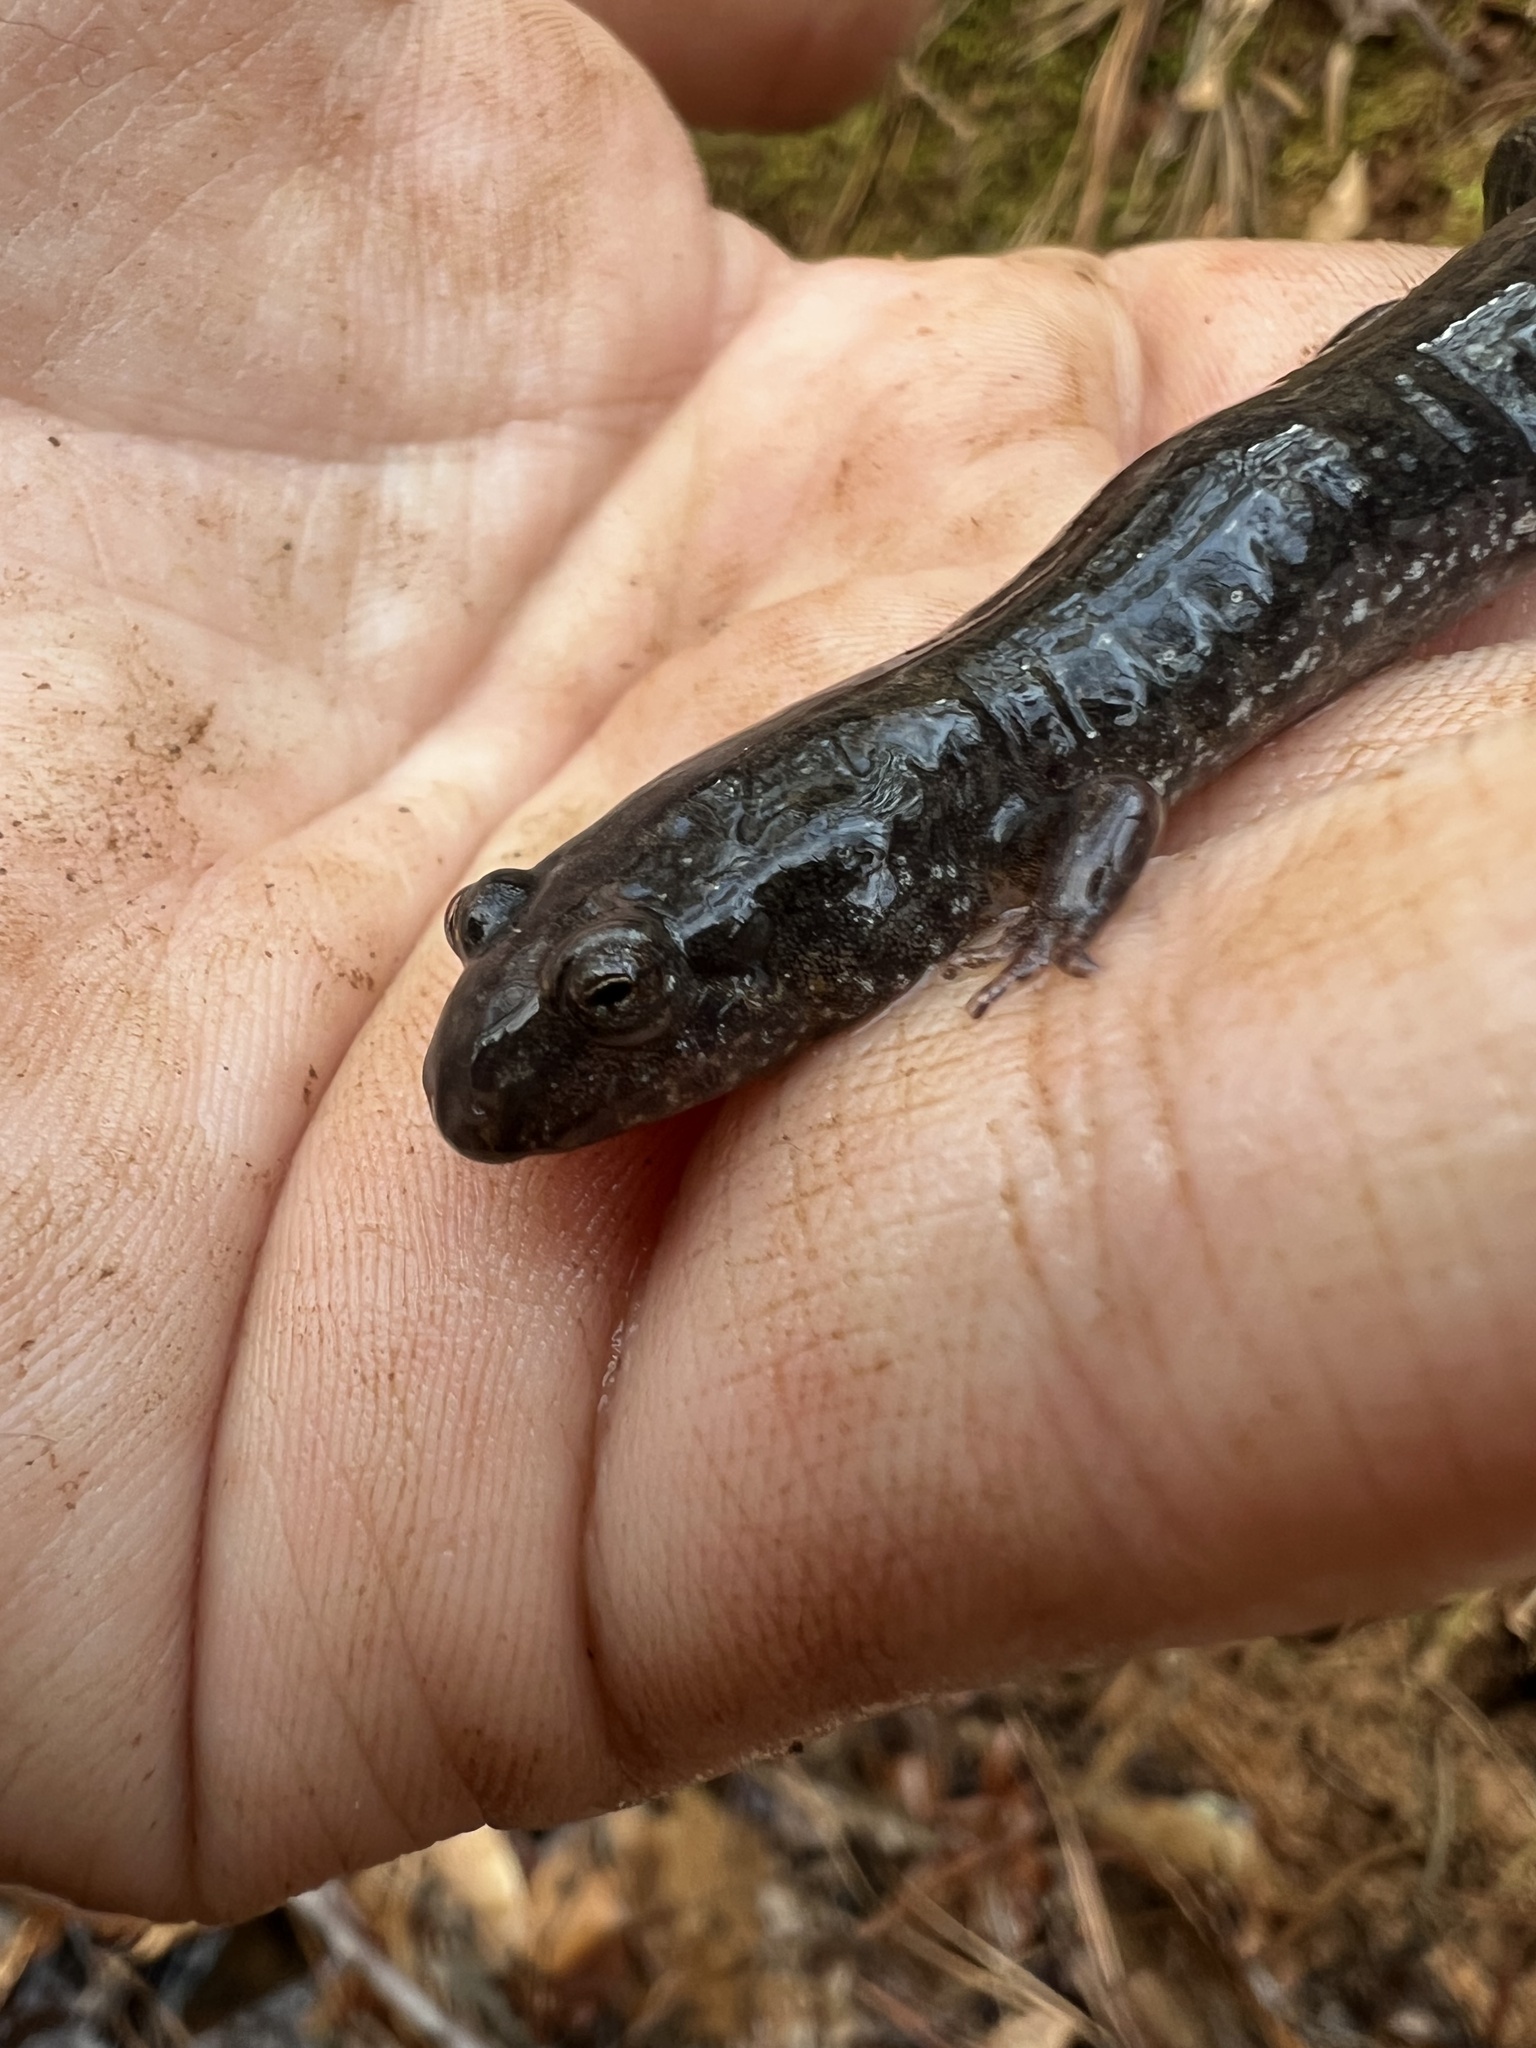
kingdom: Animalia
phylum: Chordata
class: Amphibia
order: Caudata
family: Plethodontidae
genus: Desmognathus
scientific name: Desmognathus
